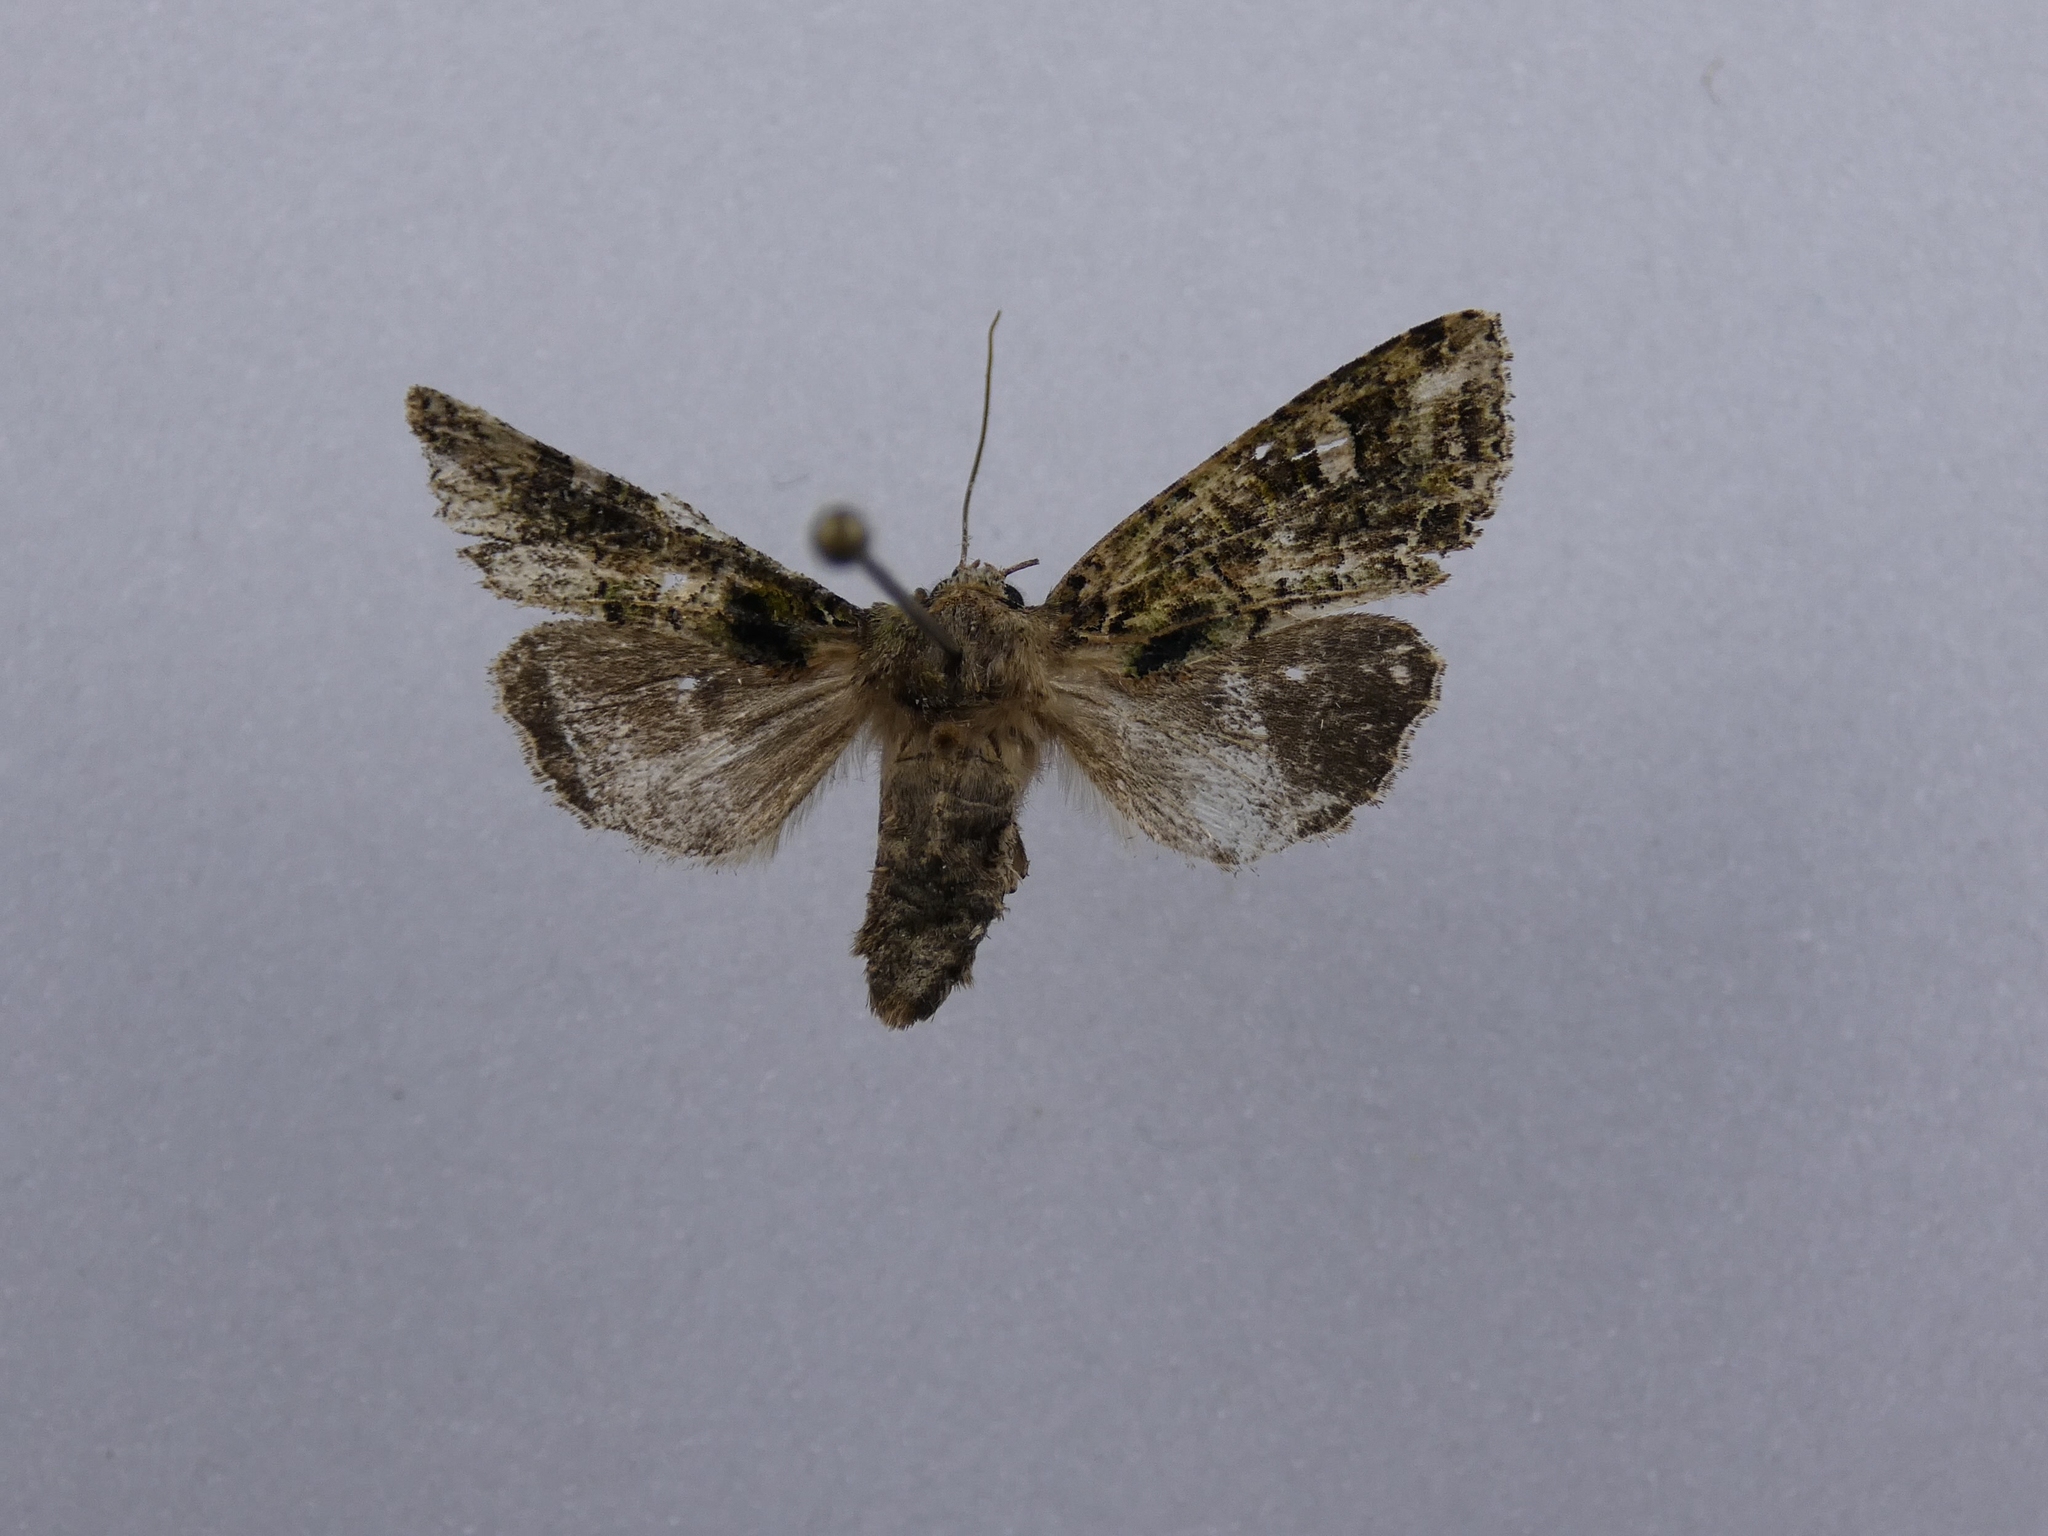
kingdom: Animalia
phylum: Arthropoda
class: Insecta
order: Lepidoptera
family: Noctuidae
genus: Ichneutica
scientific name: Ichneutica
